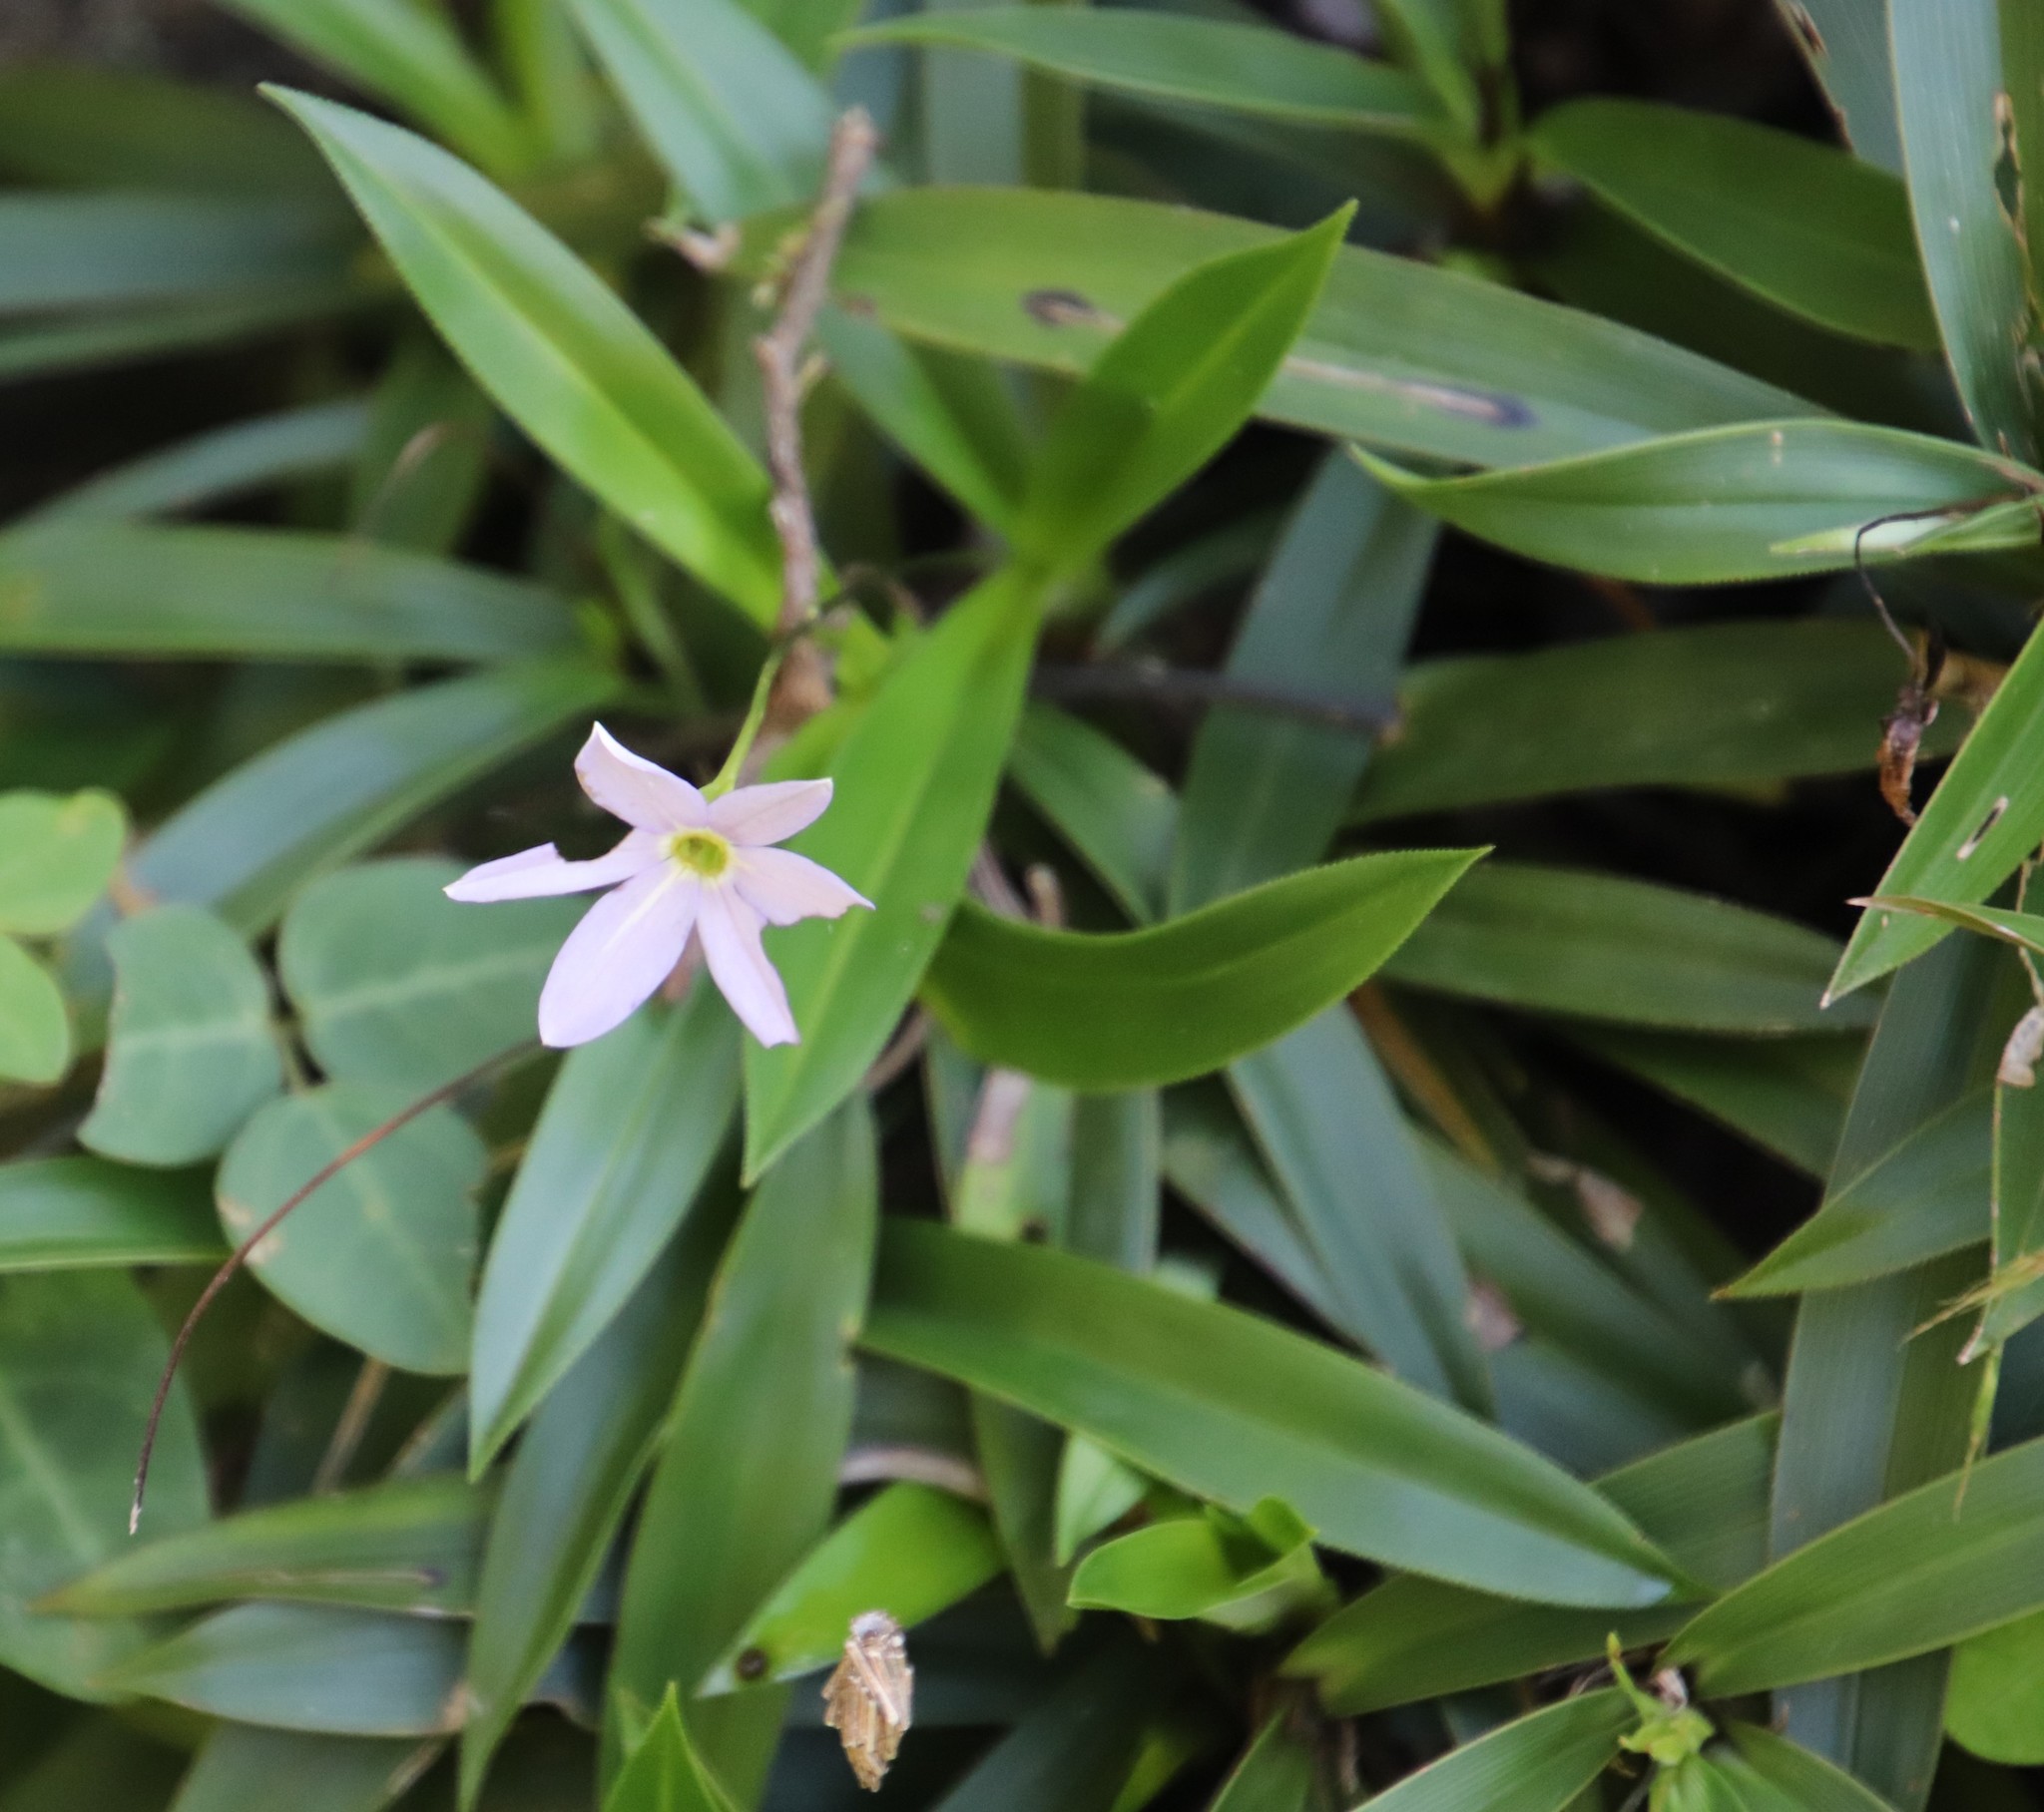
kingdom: Plantae
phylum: Tracheophyta
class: Liliopsida
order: Pandanales
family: Velloziaceae
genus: Xerophyta
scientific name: Xerophyta elegans
